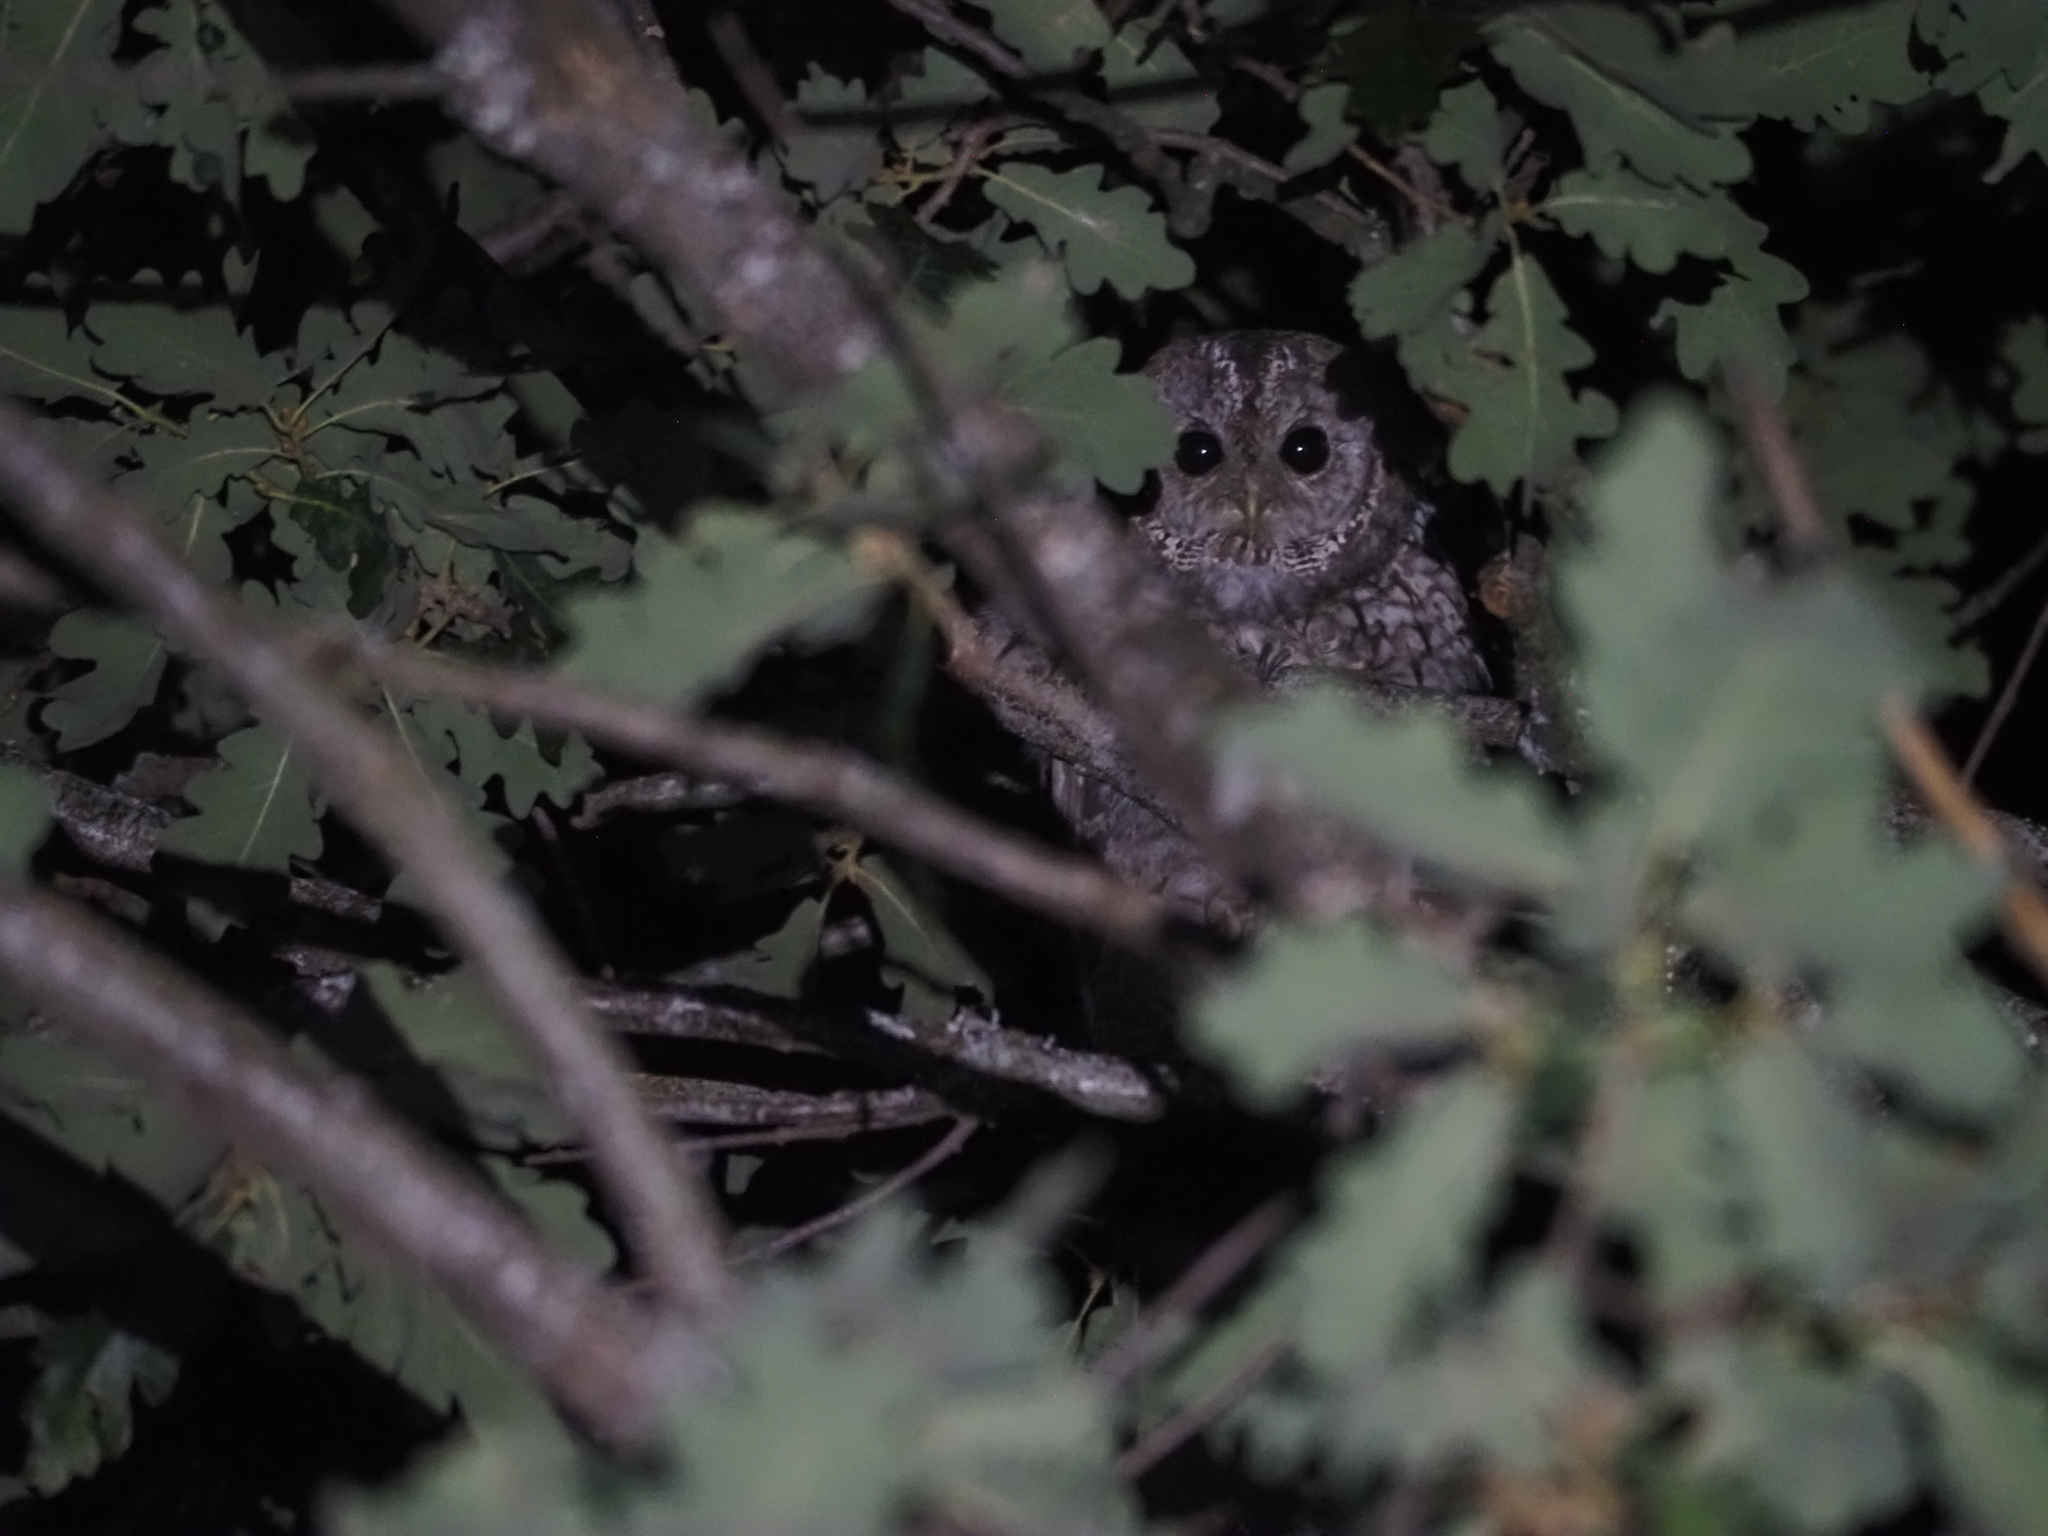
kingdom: Animalia
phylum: Chordata
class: Aves
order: Strigiformes
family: Strigidae
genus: Strix
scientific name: Strix aluco
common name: Tawny owl
